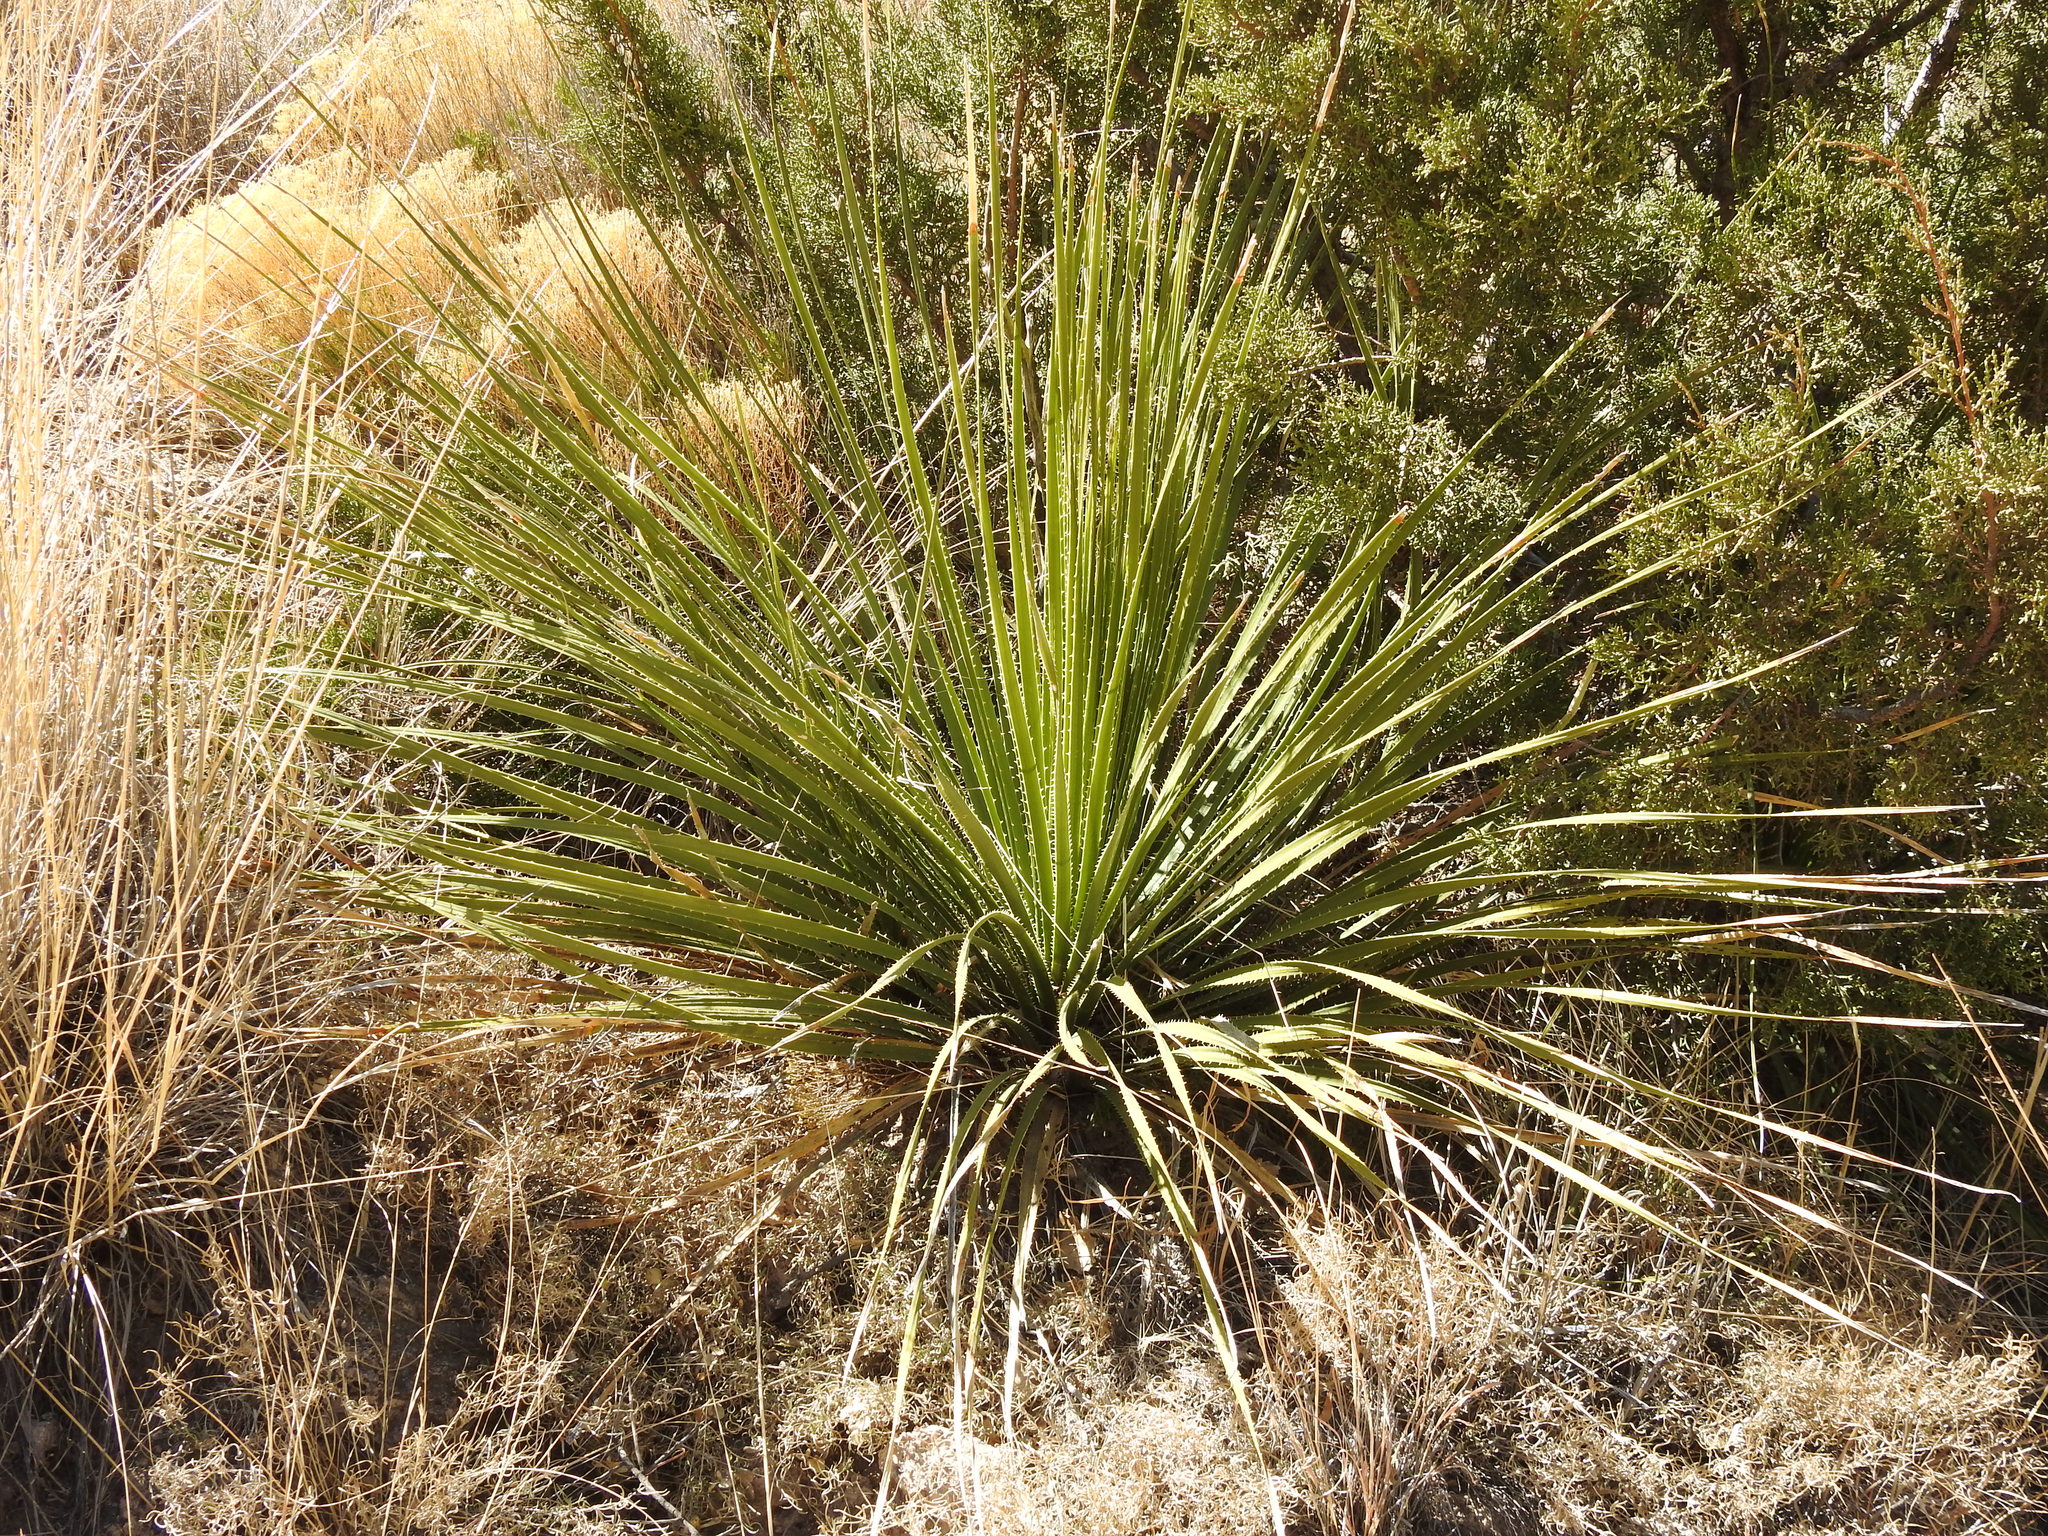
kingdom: Plantae
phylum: Tracheophyta
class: Liliopsida
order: Asparagales
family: Asparagaceae
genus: Dasylirion
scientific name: Dasylirion leiophyllum
